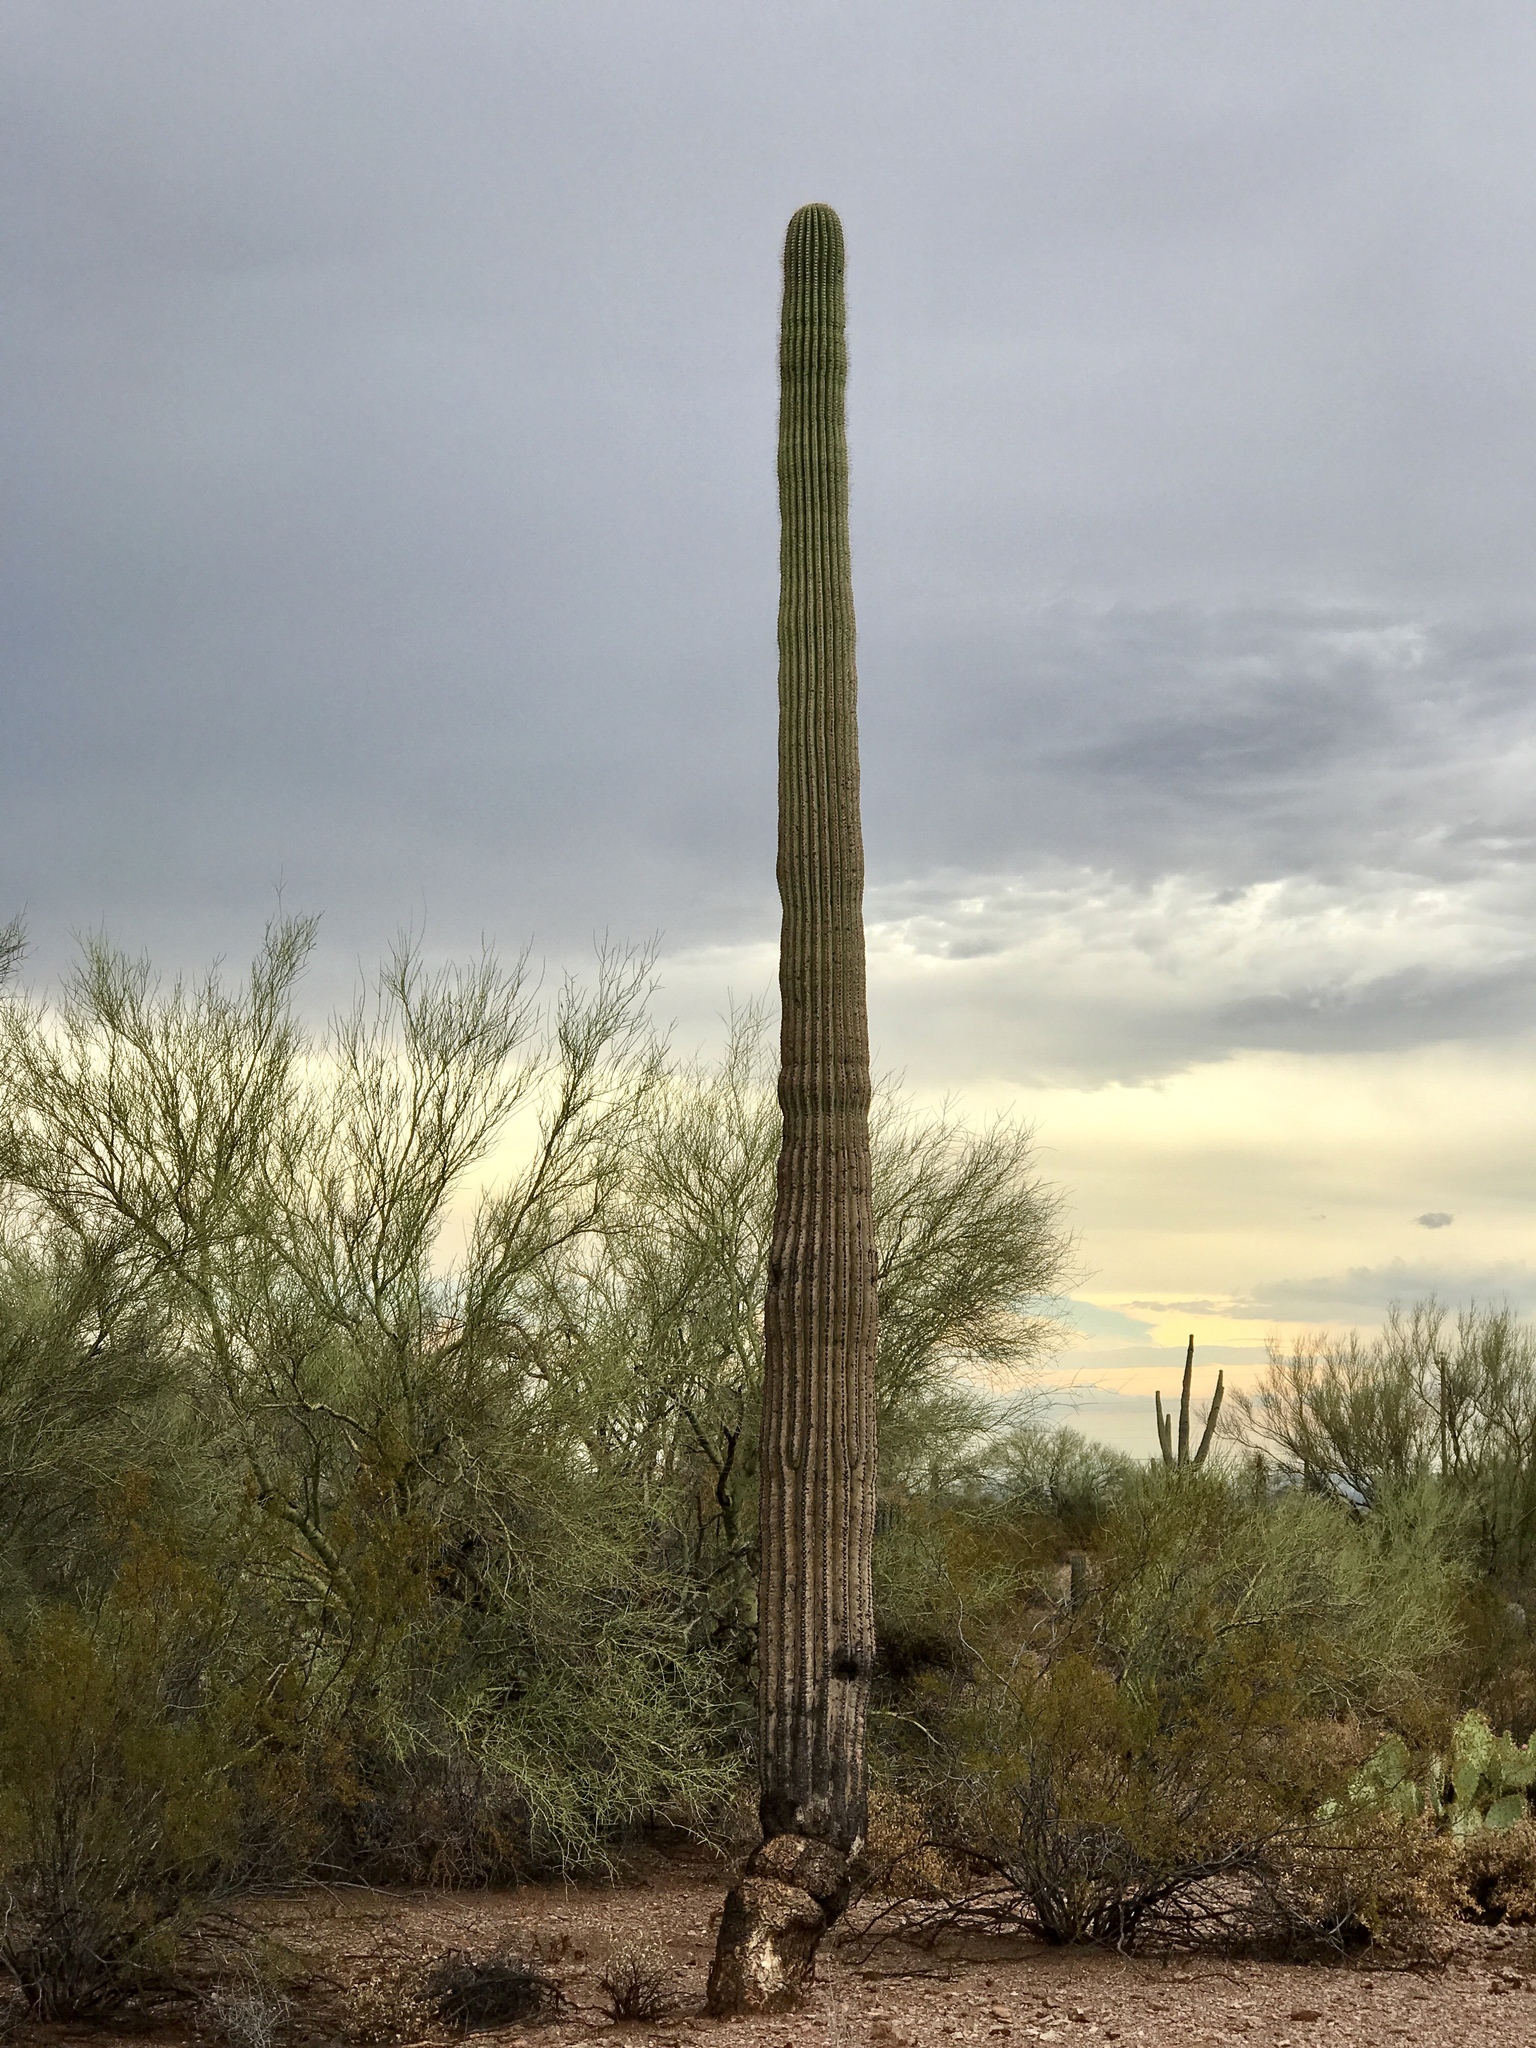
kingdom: Plantae
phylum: Tracheophyta
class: Magnoliopsida
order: Caryophyllales
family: Cactaceae
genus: Carnegiea
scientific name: Carnegiea gigantea
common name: Saguaro
